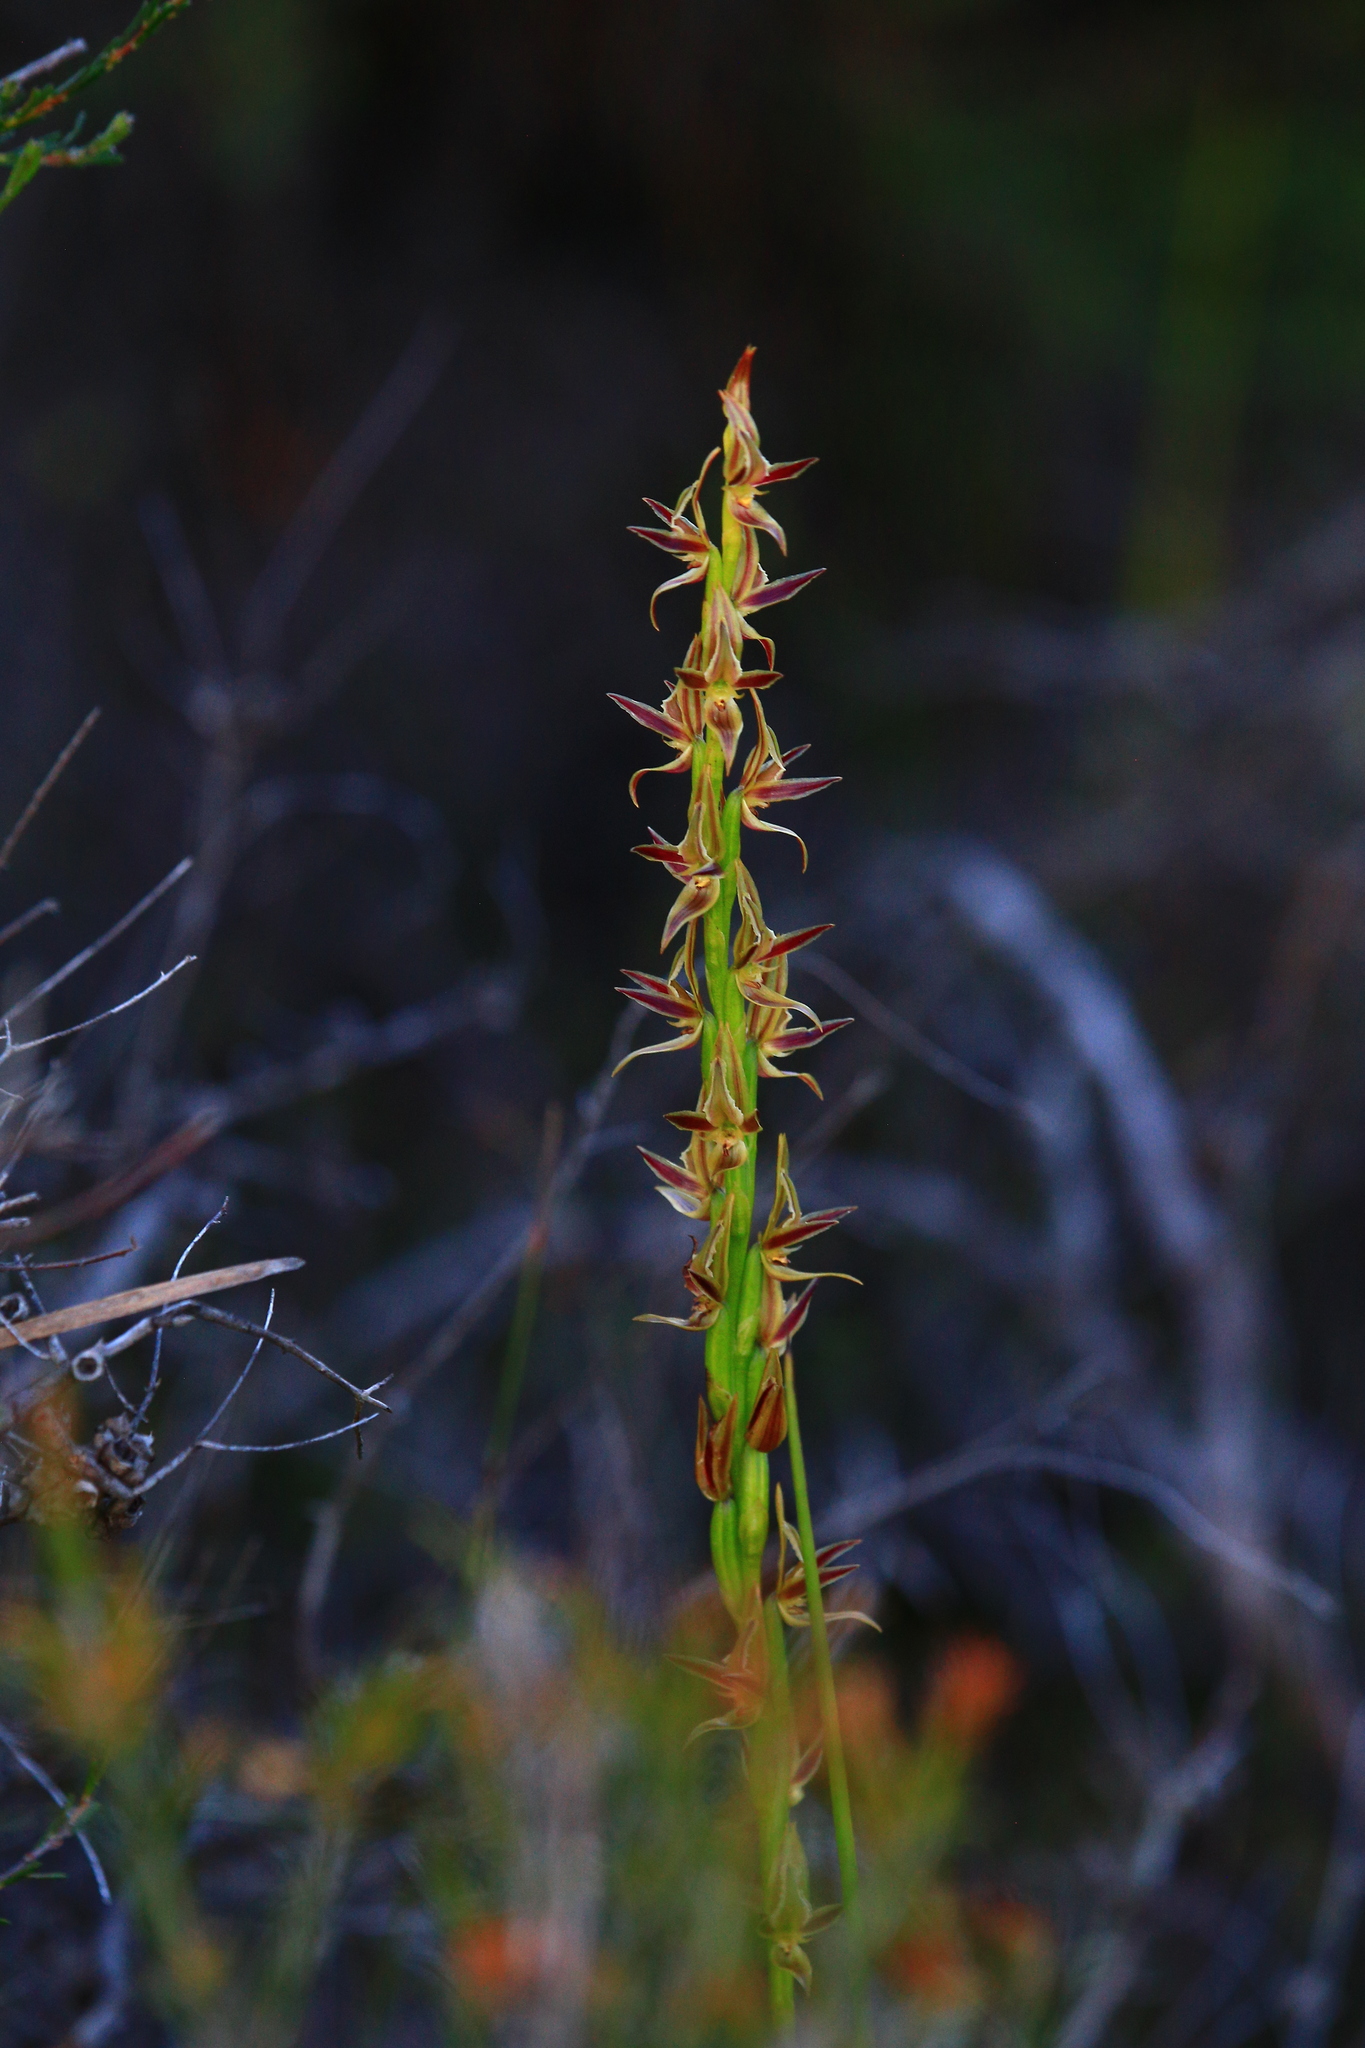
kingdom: Plantae
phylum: Tracheophyta
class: Liliopsida
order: Asparagales
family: Orchidaceae
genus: Prasophyllum
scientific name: Prasophyllum drummondii
